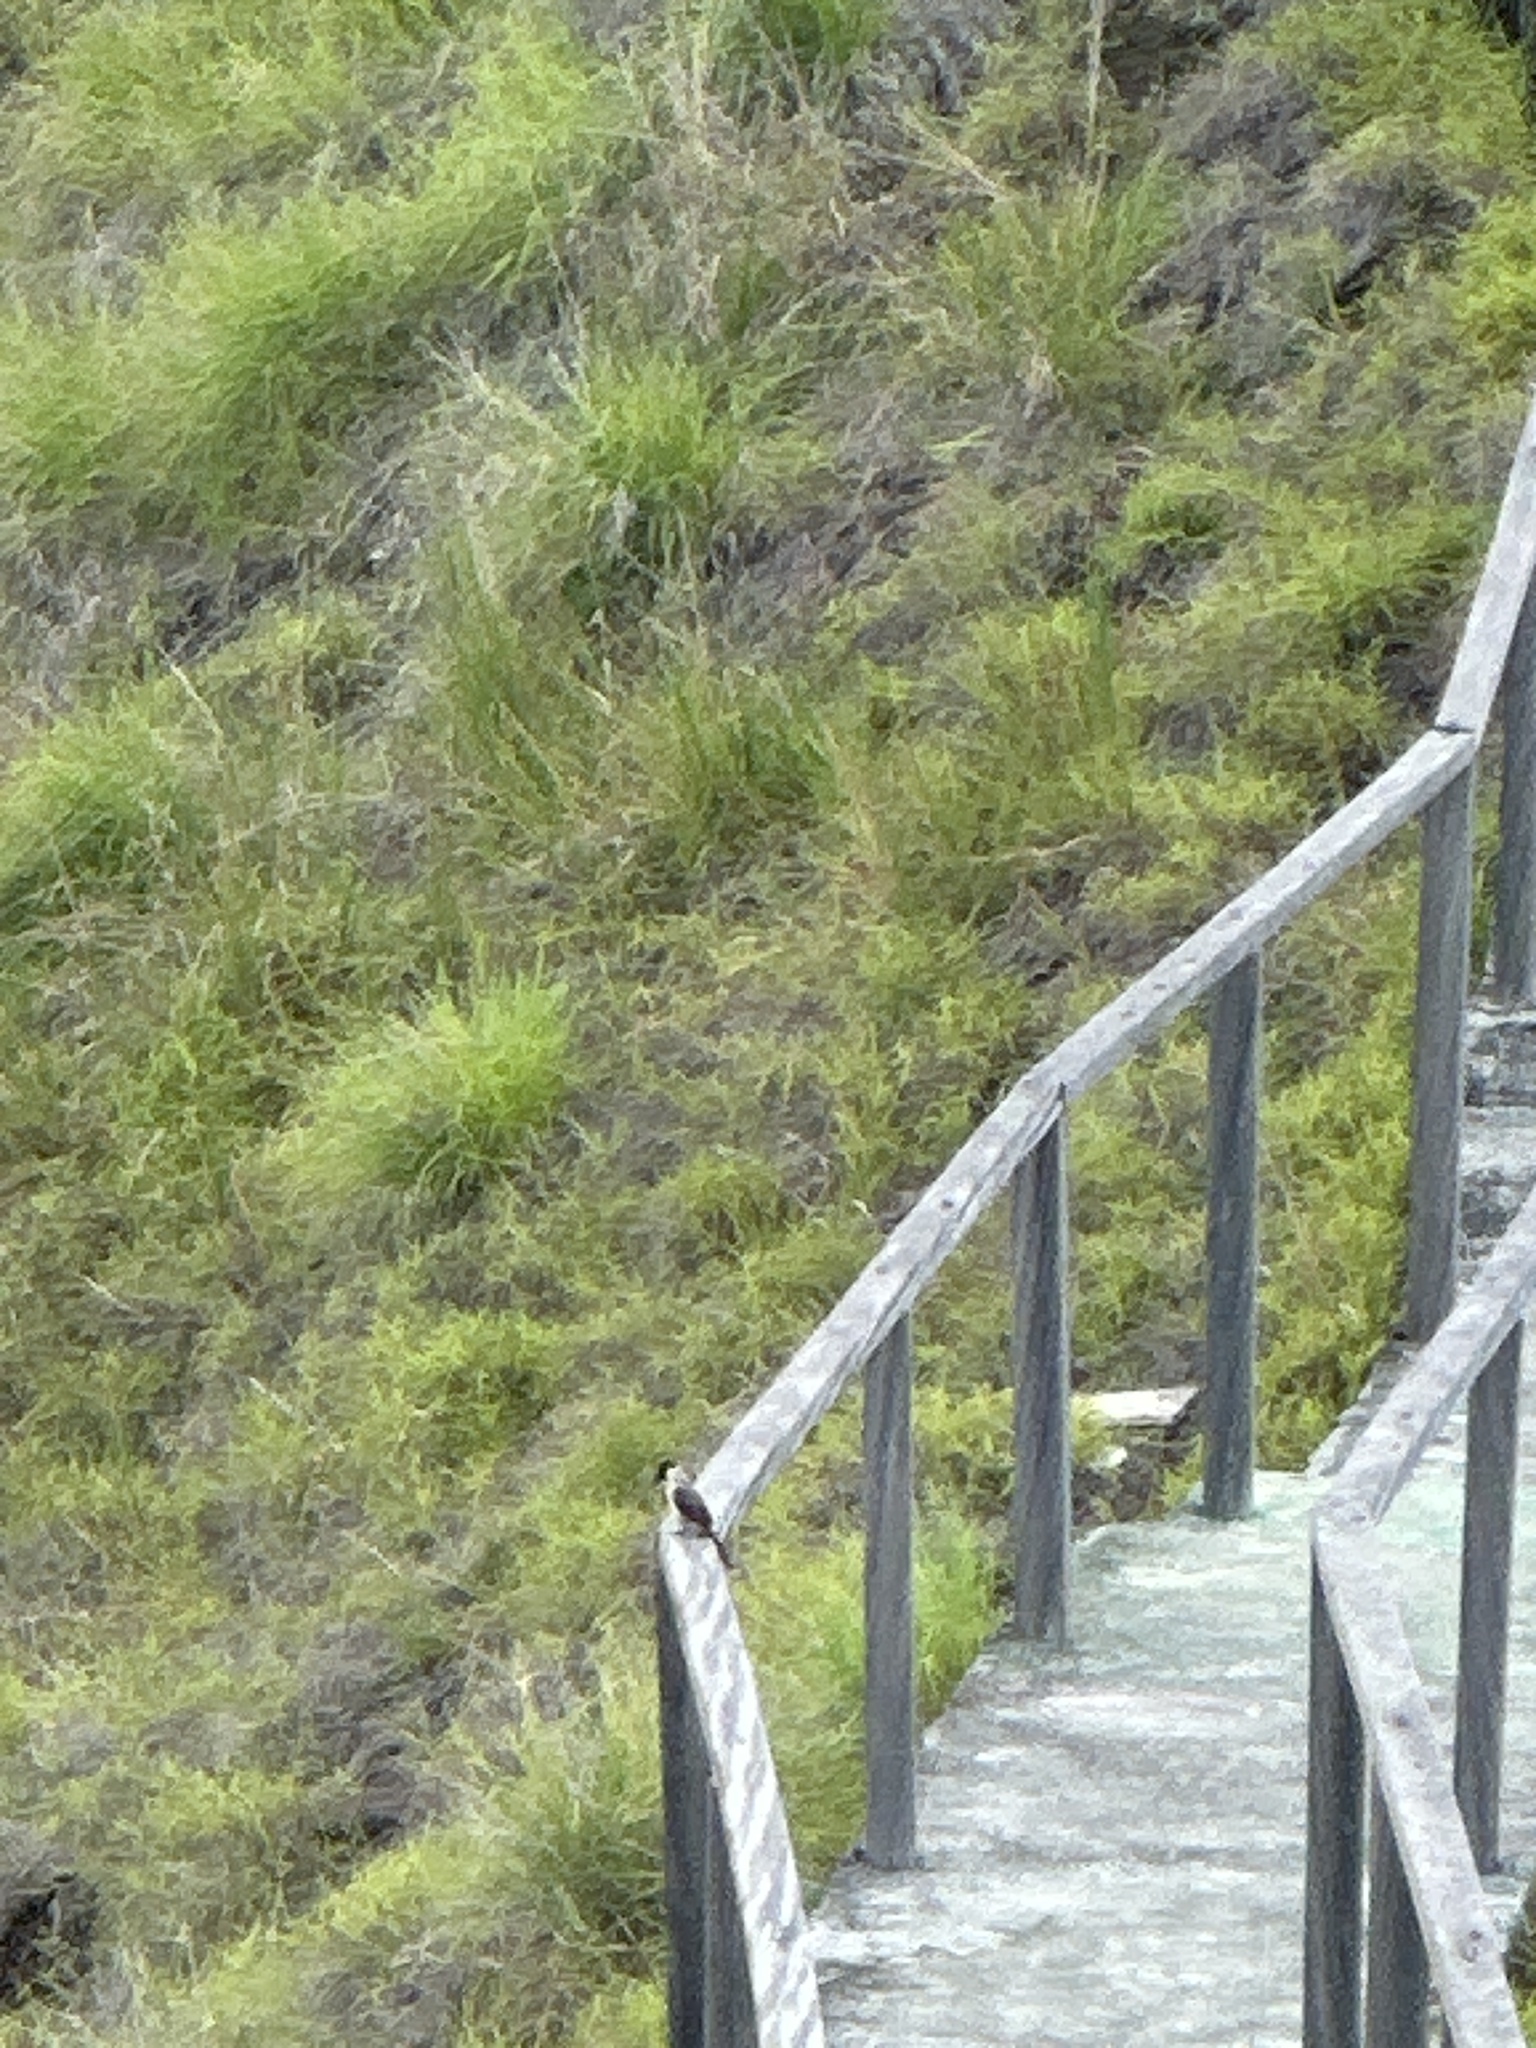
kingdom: Animalia
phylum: Chordata
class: Aves
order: Passeriformes
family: Pycnonotidae
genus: Pycnonotus
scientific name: Pycnonotus aurigaster
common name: Sooty-headed bulbul
